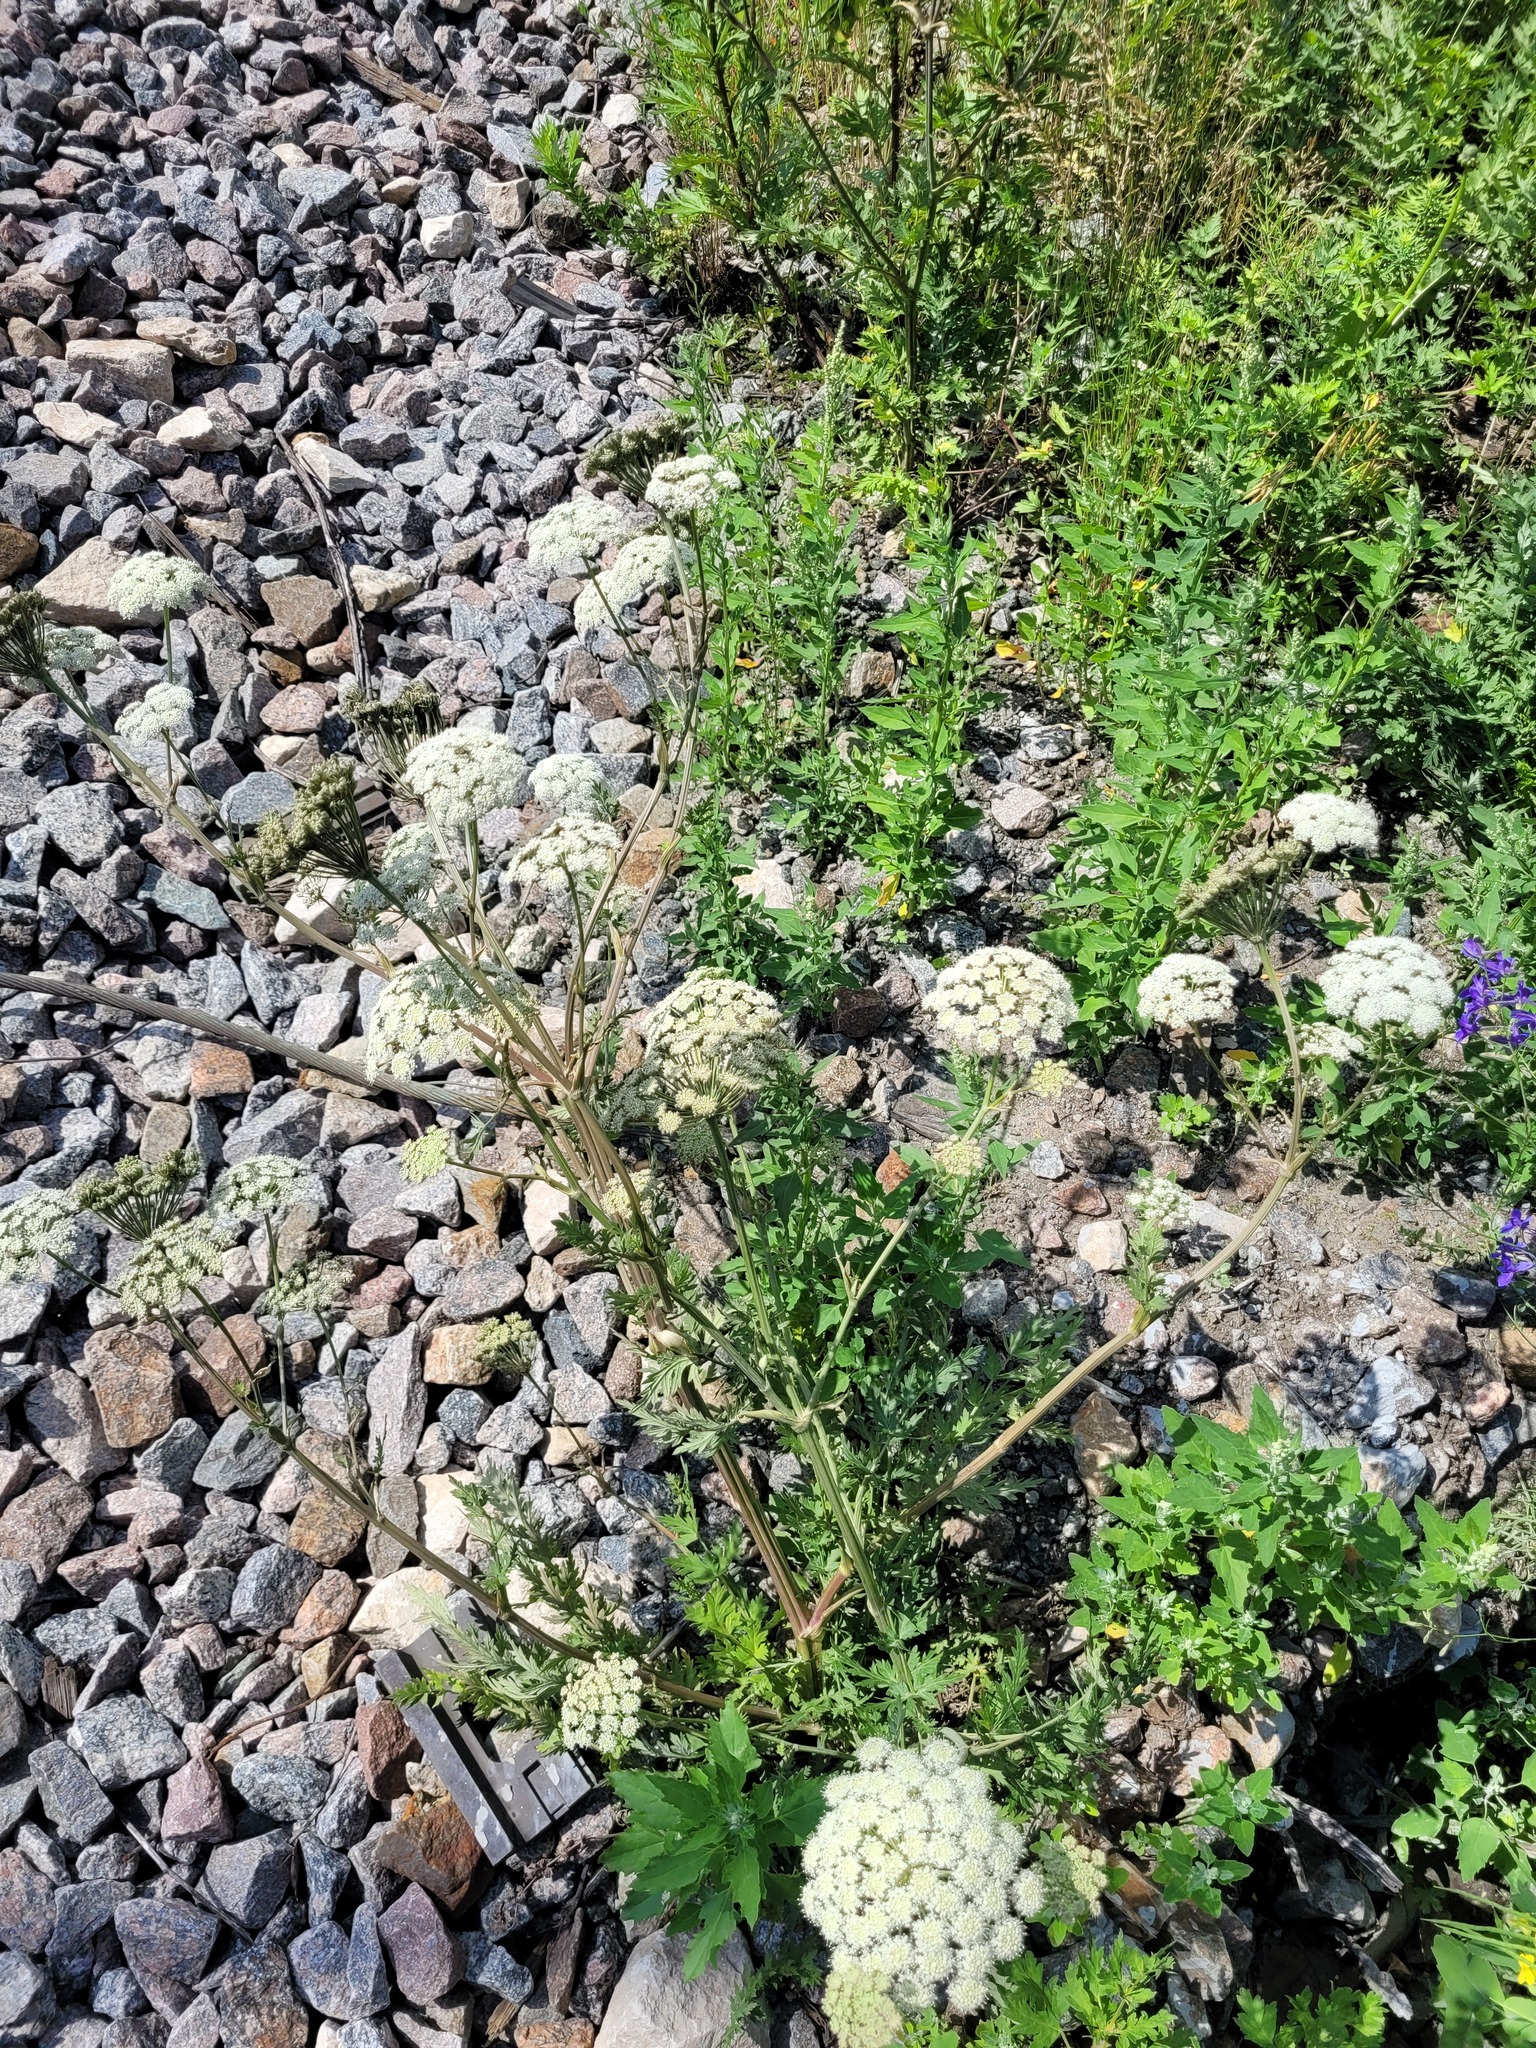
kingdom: Plantae
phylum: Tracheophyta
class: Magnoliopsida
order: Apiales
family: Apiaceae
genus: Seseli
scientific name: Seseli libanotis
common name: Mooncarrot
